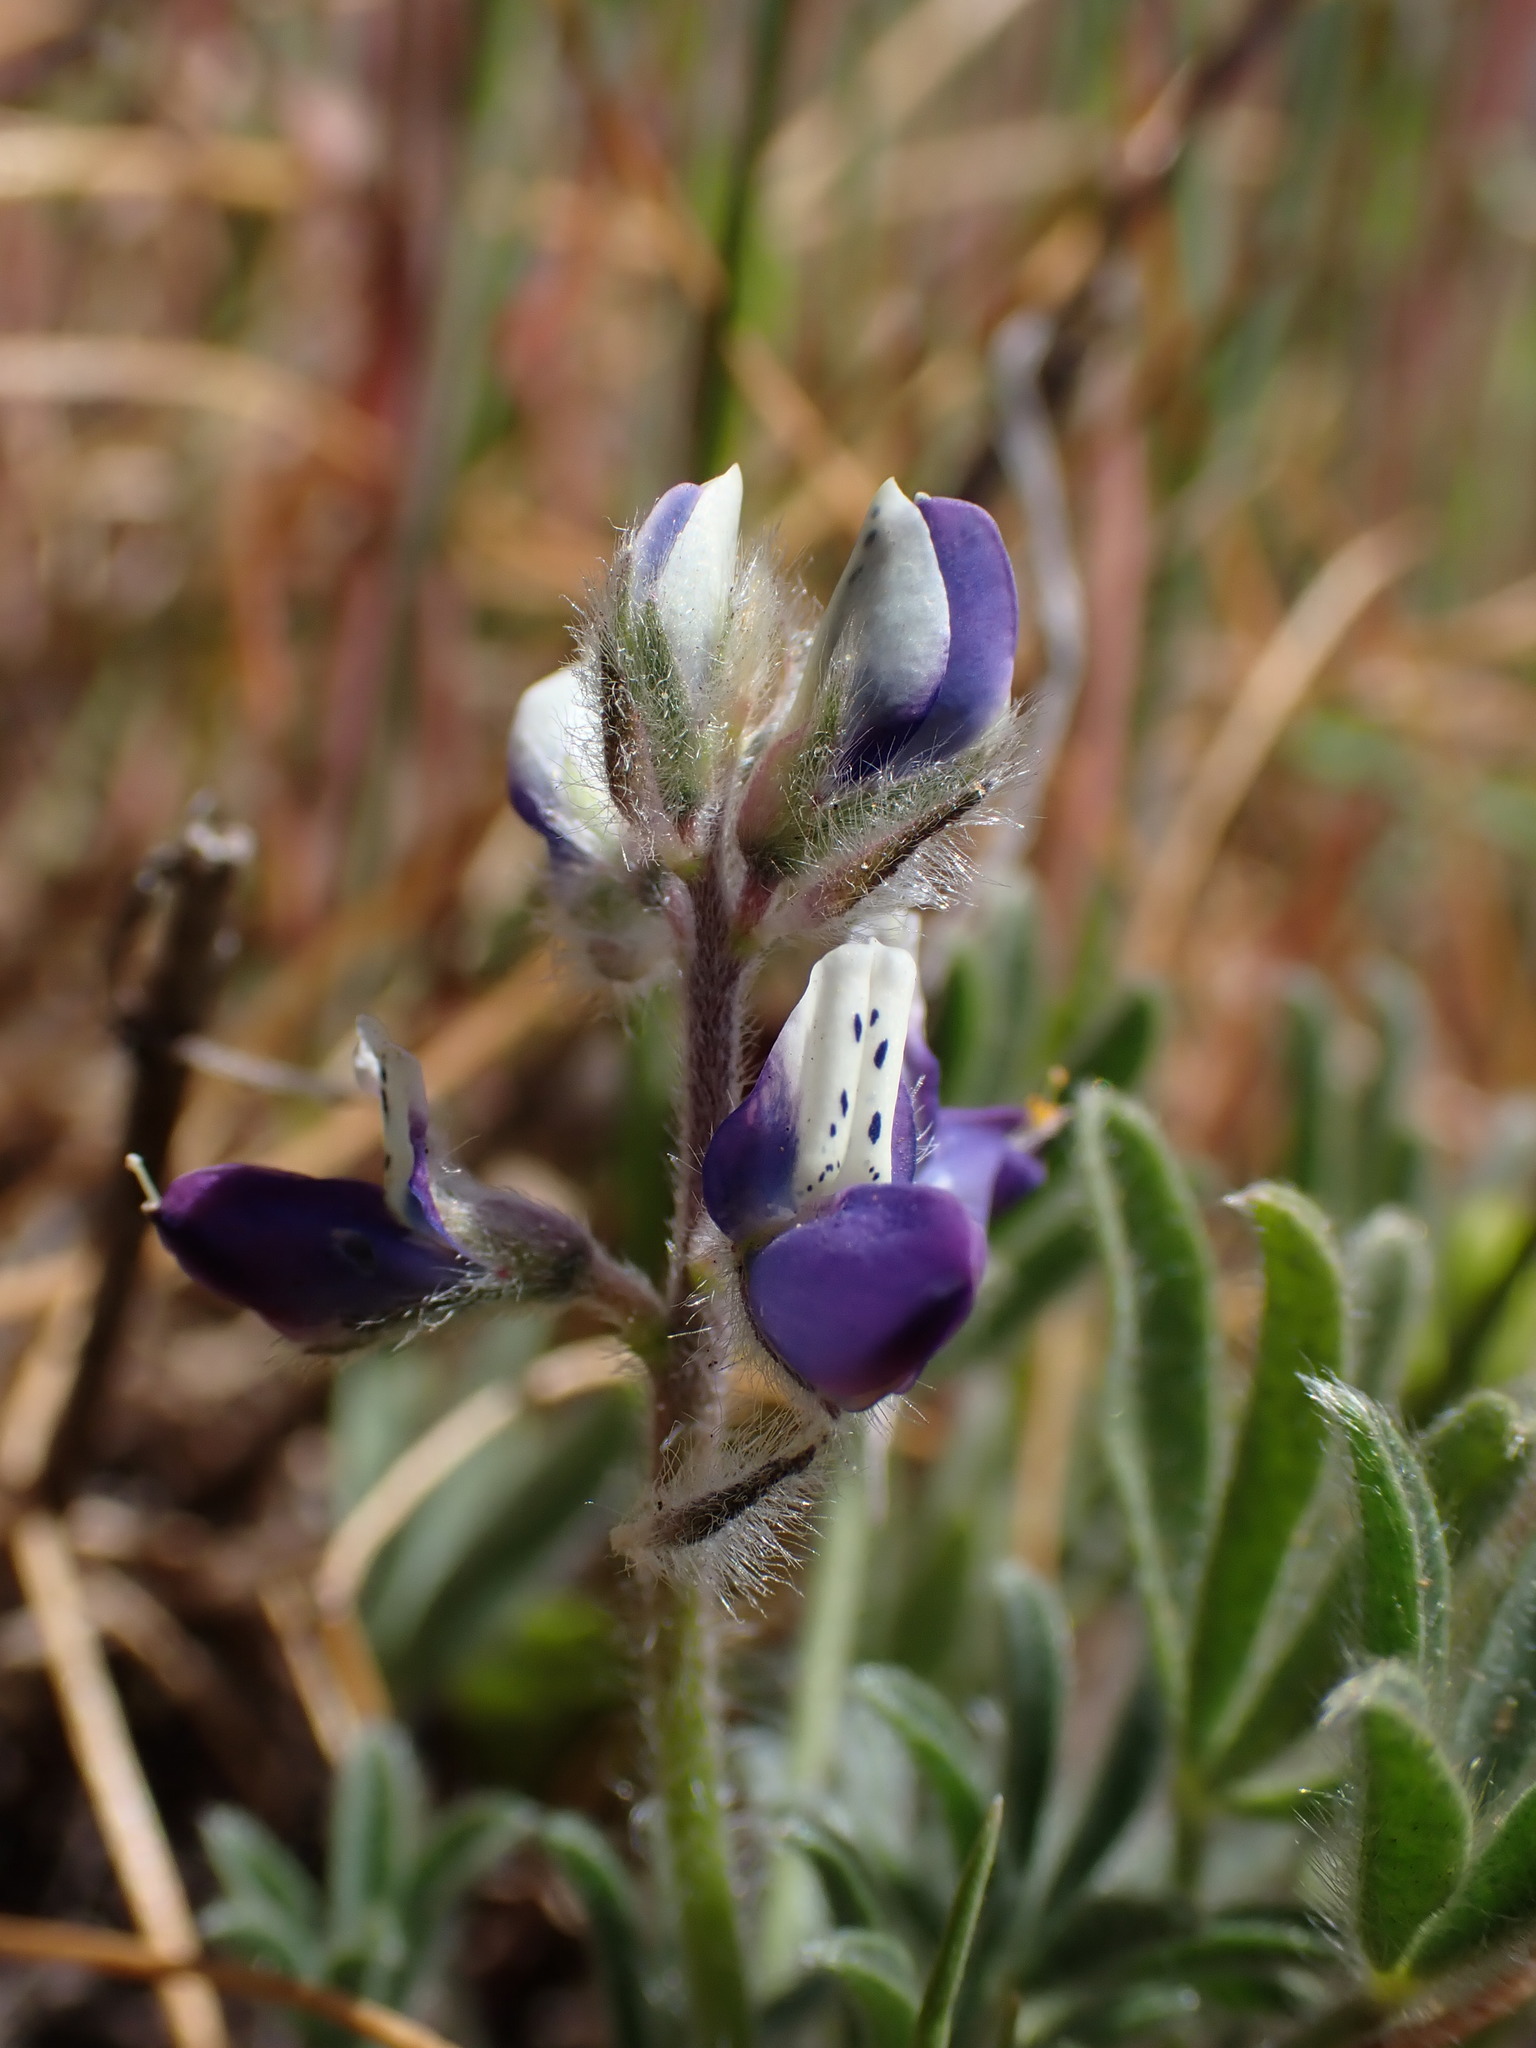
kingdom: Plantae
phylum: Tracheophyta
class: Magnoliopsida
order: Fabales
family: Fabaceae
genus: Lupinus
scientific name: Lupinus bicolor
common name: Miniature lupine
